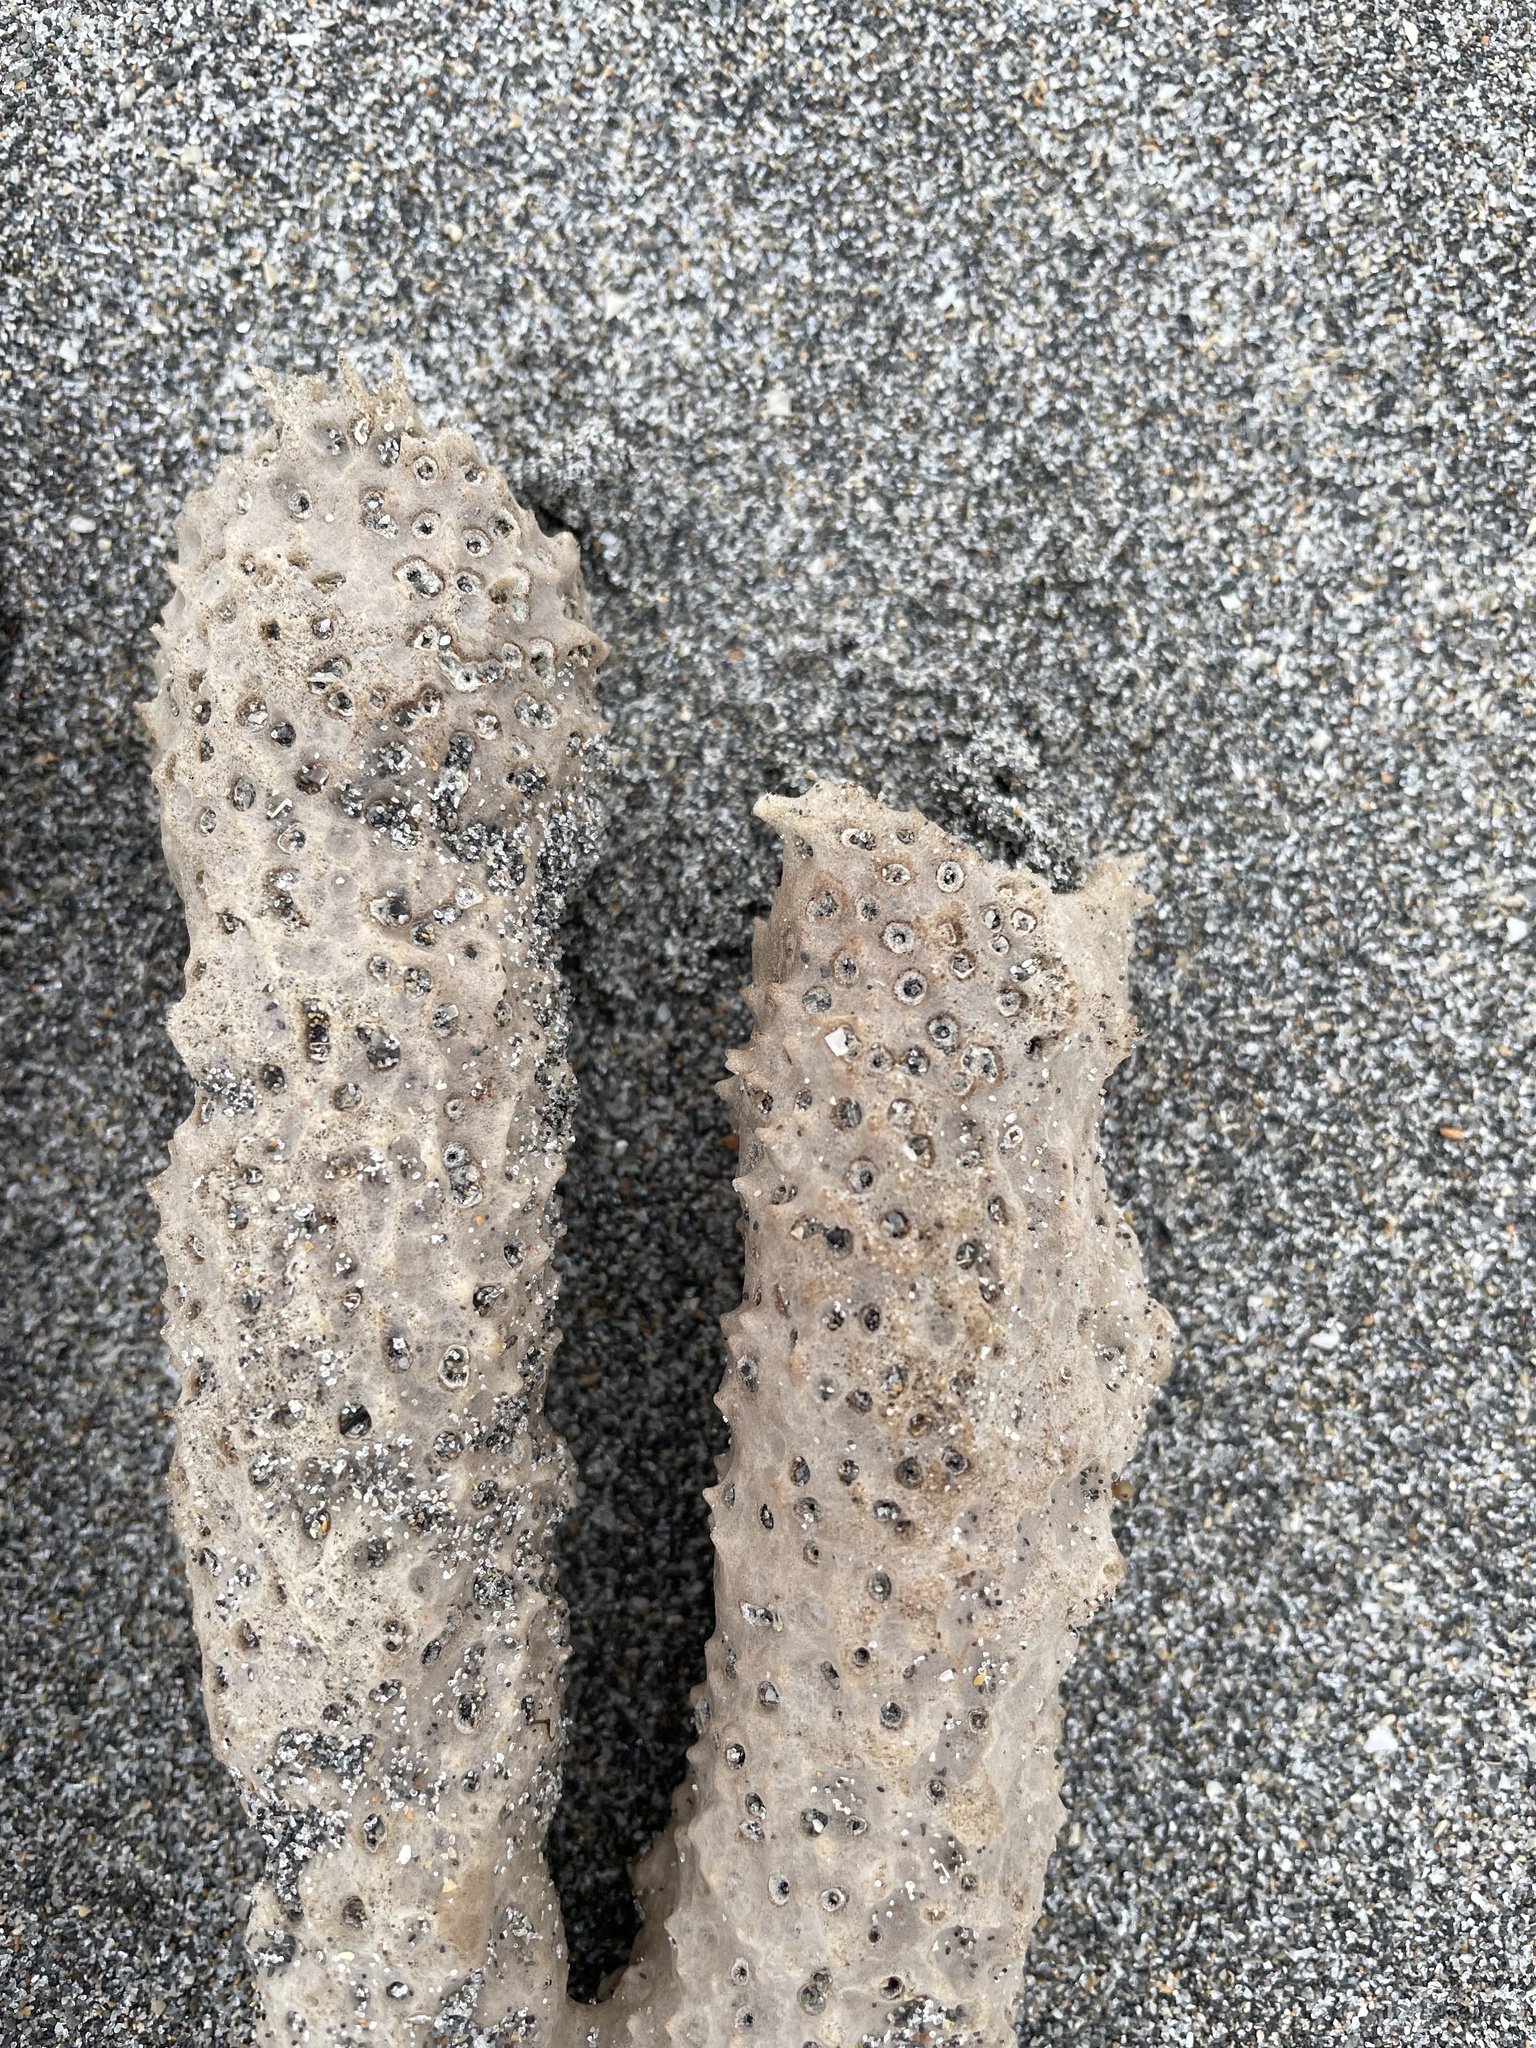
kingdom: Animalia
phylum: Porifera
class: Demospongiae
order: Haplosclerida
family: Callyspongiidae
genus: Callyspongia
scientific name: Callyspongia aculeata
